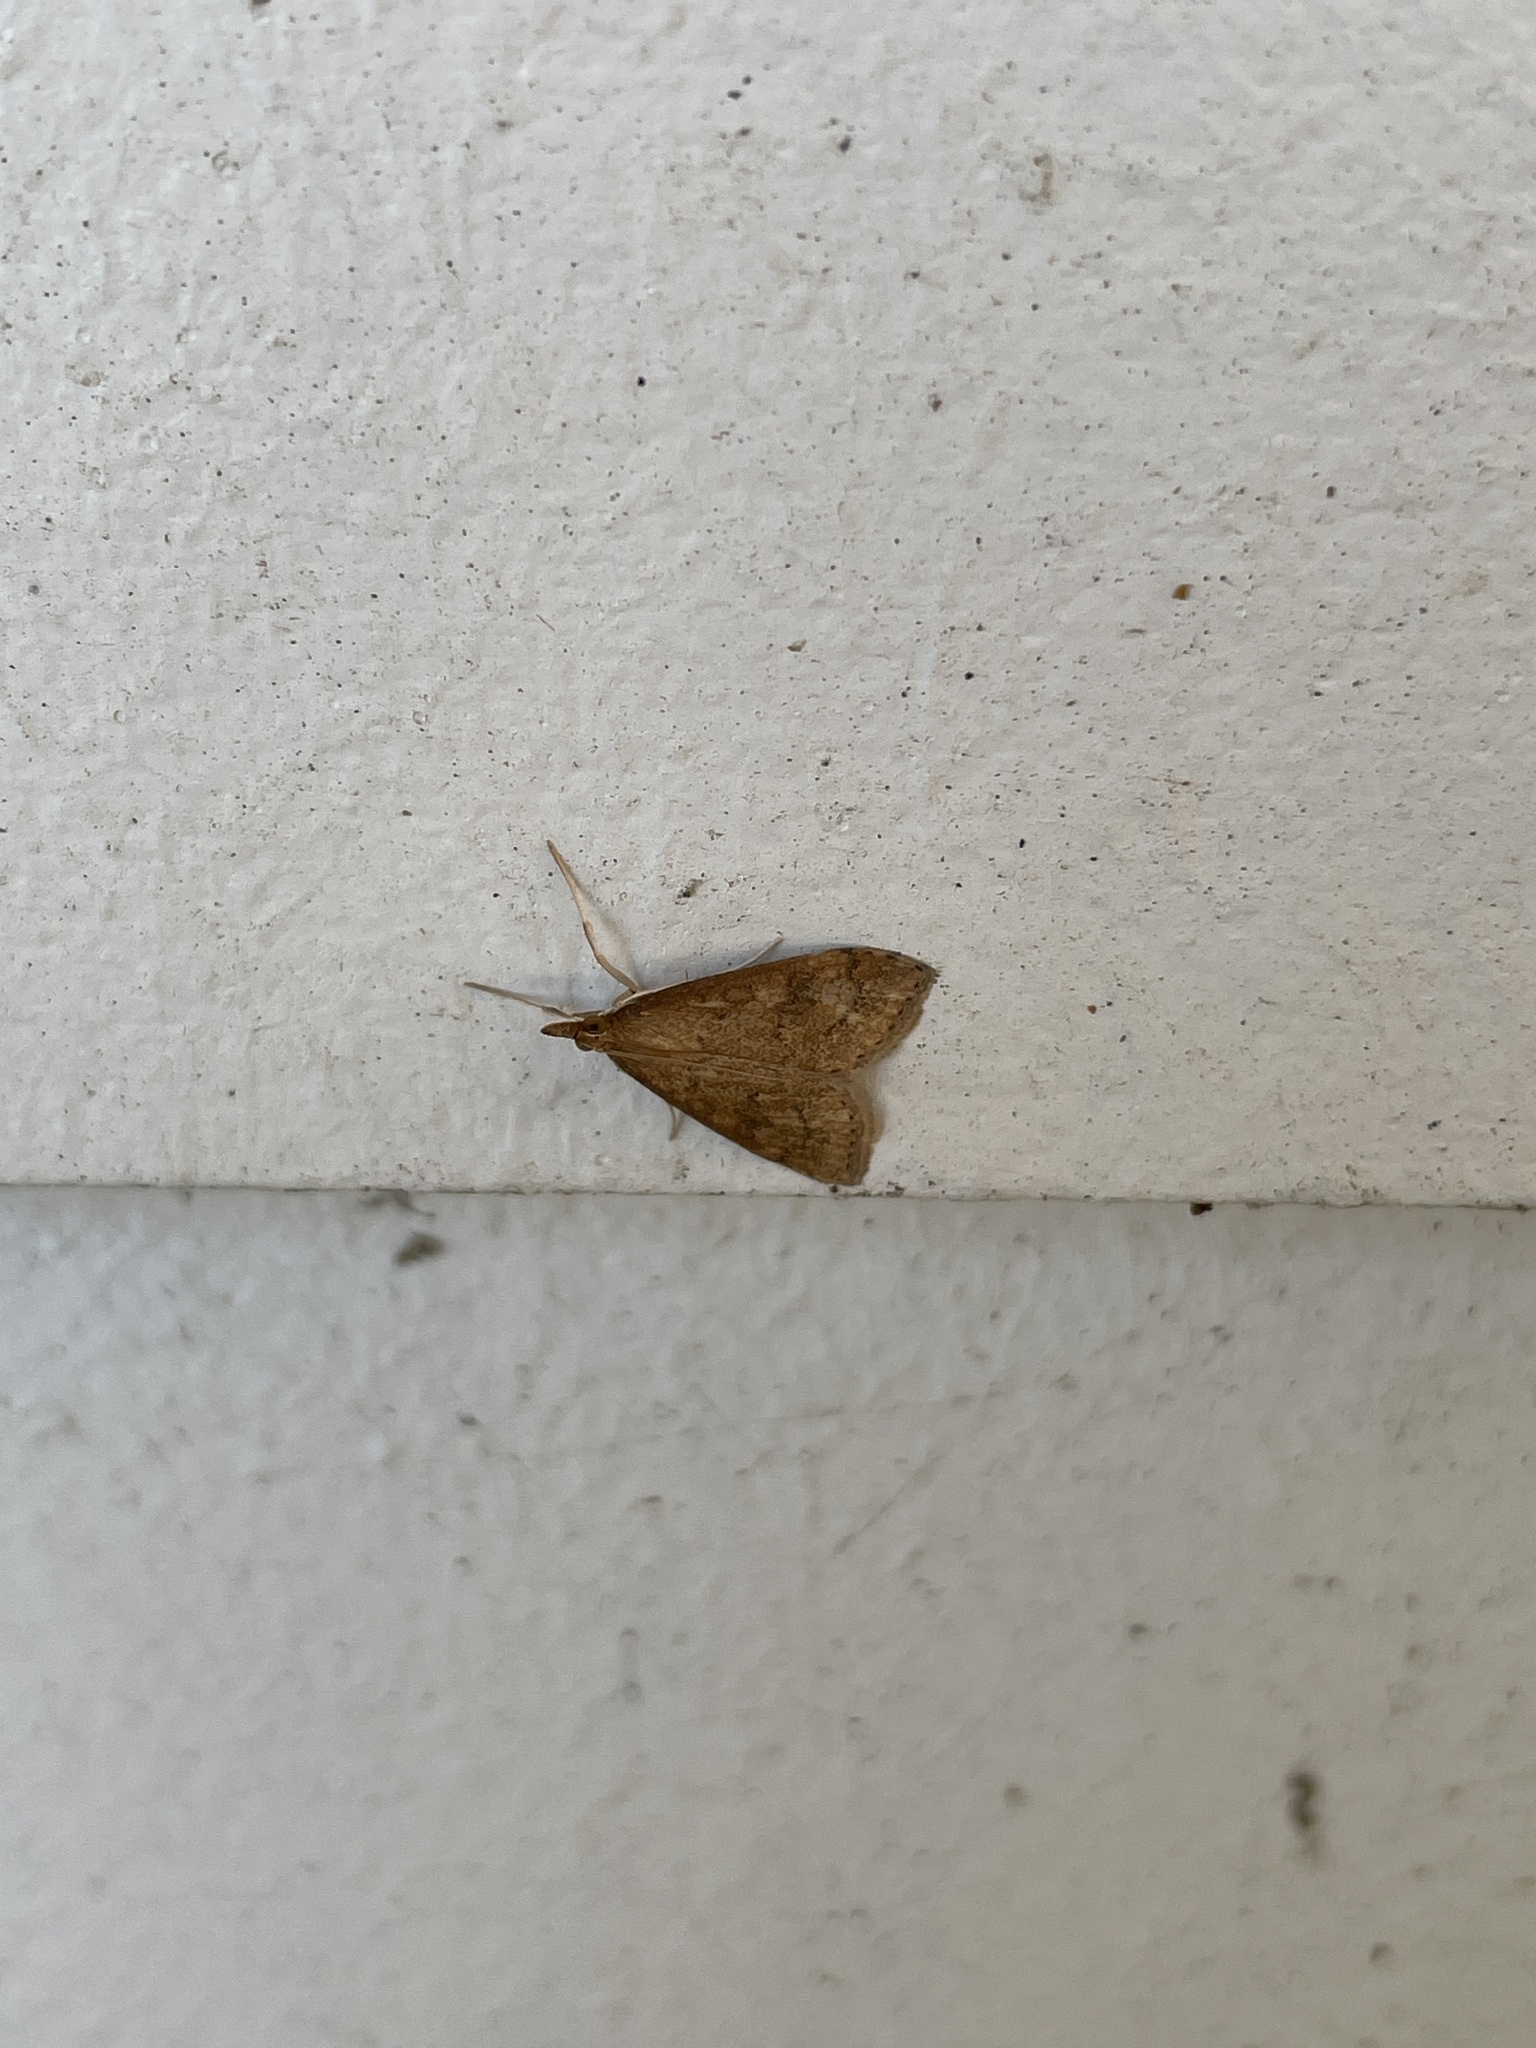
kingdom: Animalia
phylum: Arthropoda
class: Insecta
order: Lepidoptera
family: Crambidae
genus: Udea
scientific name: Udea rubigalis
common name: Celery leaftier moth
